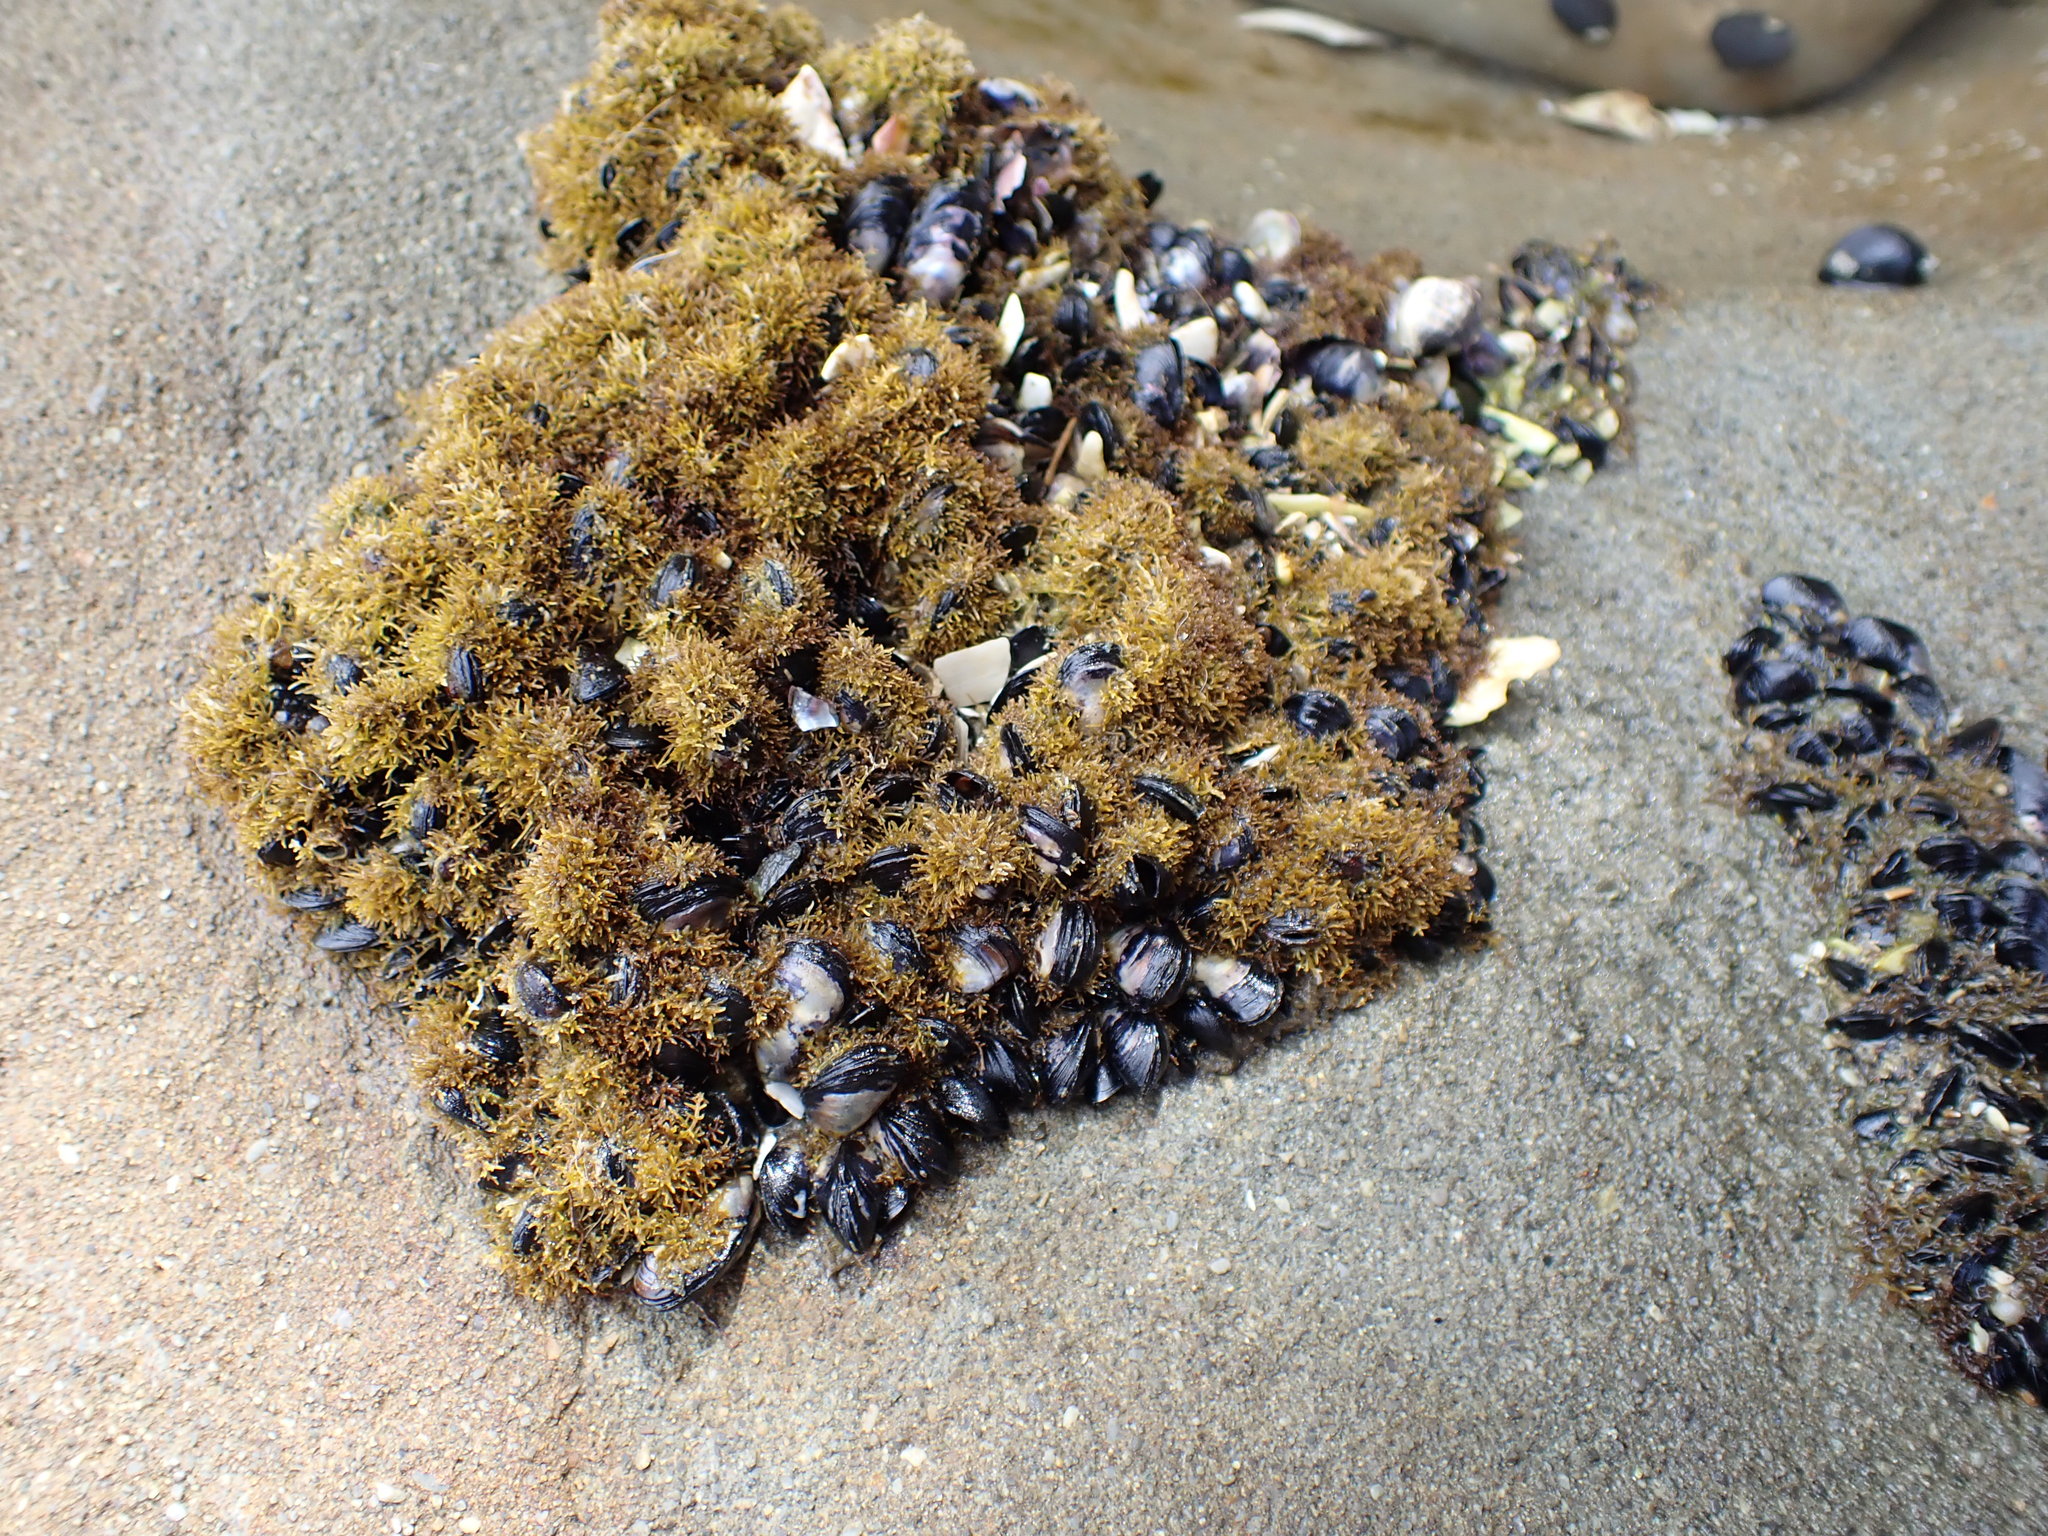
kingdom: Animalia
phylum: Mollusca
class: Bivalvia
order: Mytilida
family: Mytilidae
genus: Xenostrobus
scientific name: Xenostrobus neozelanicus
